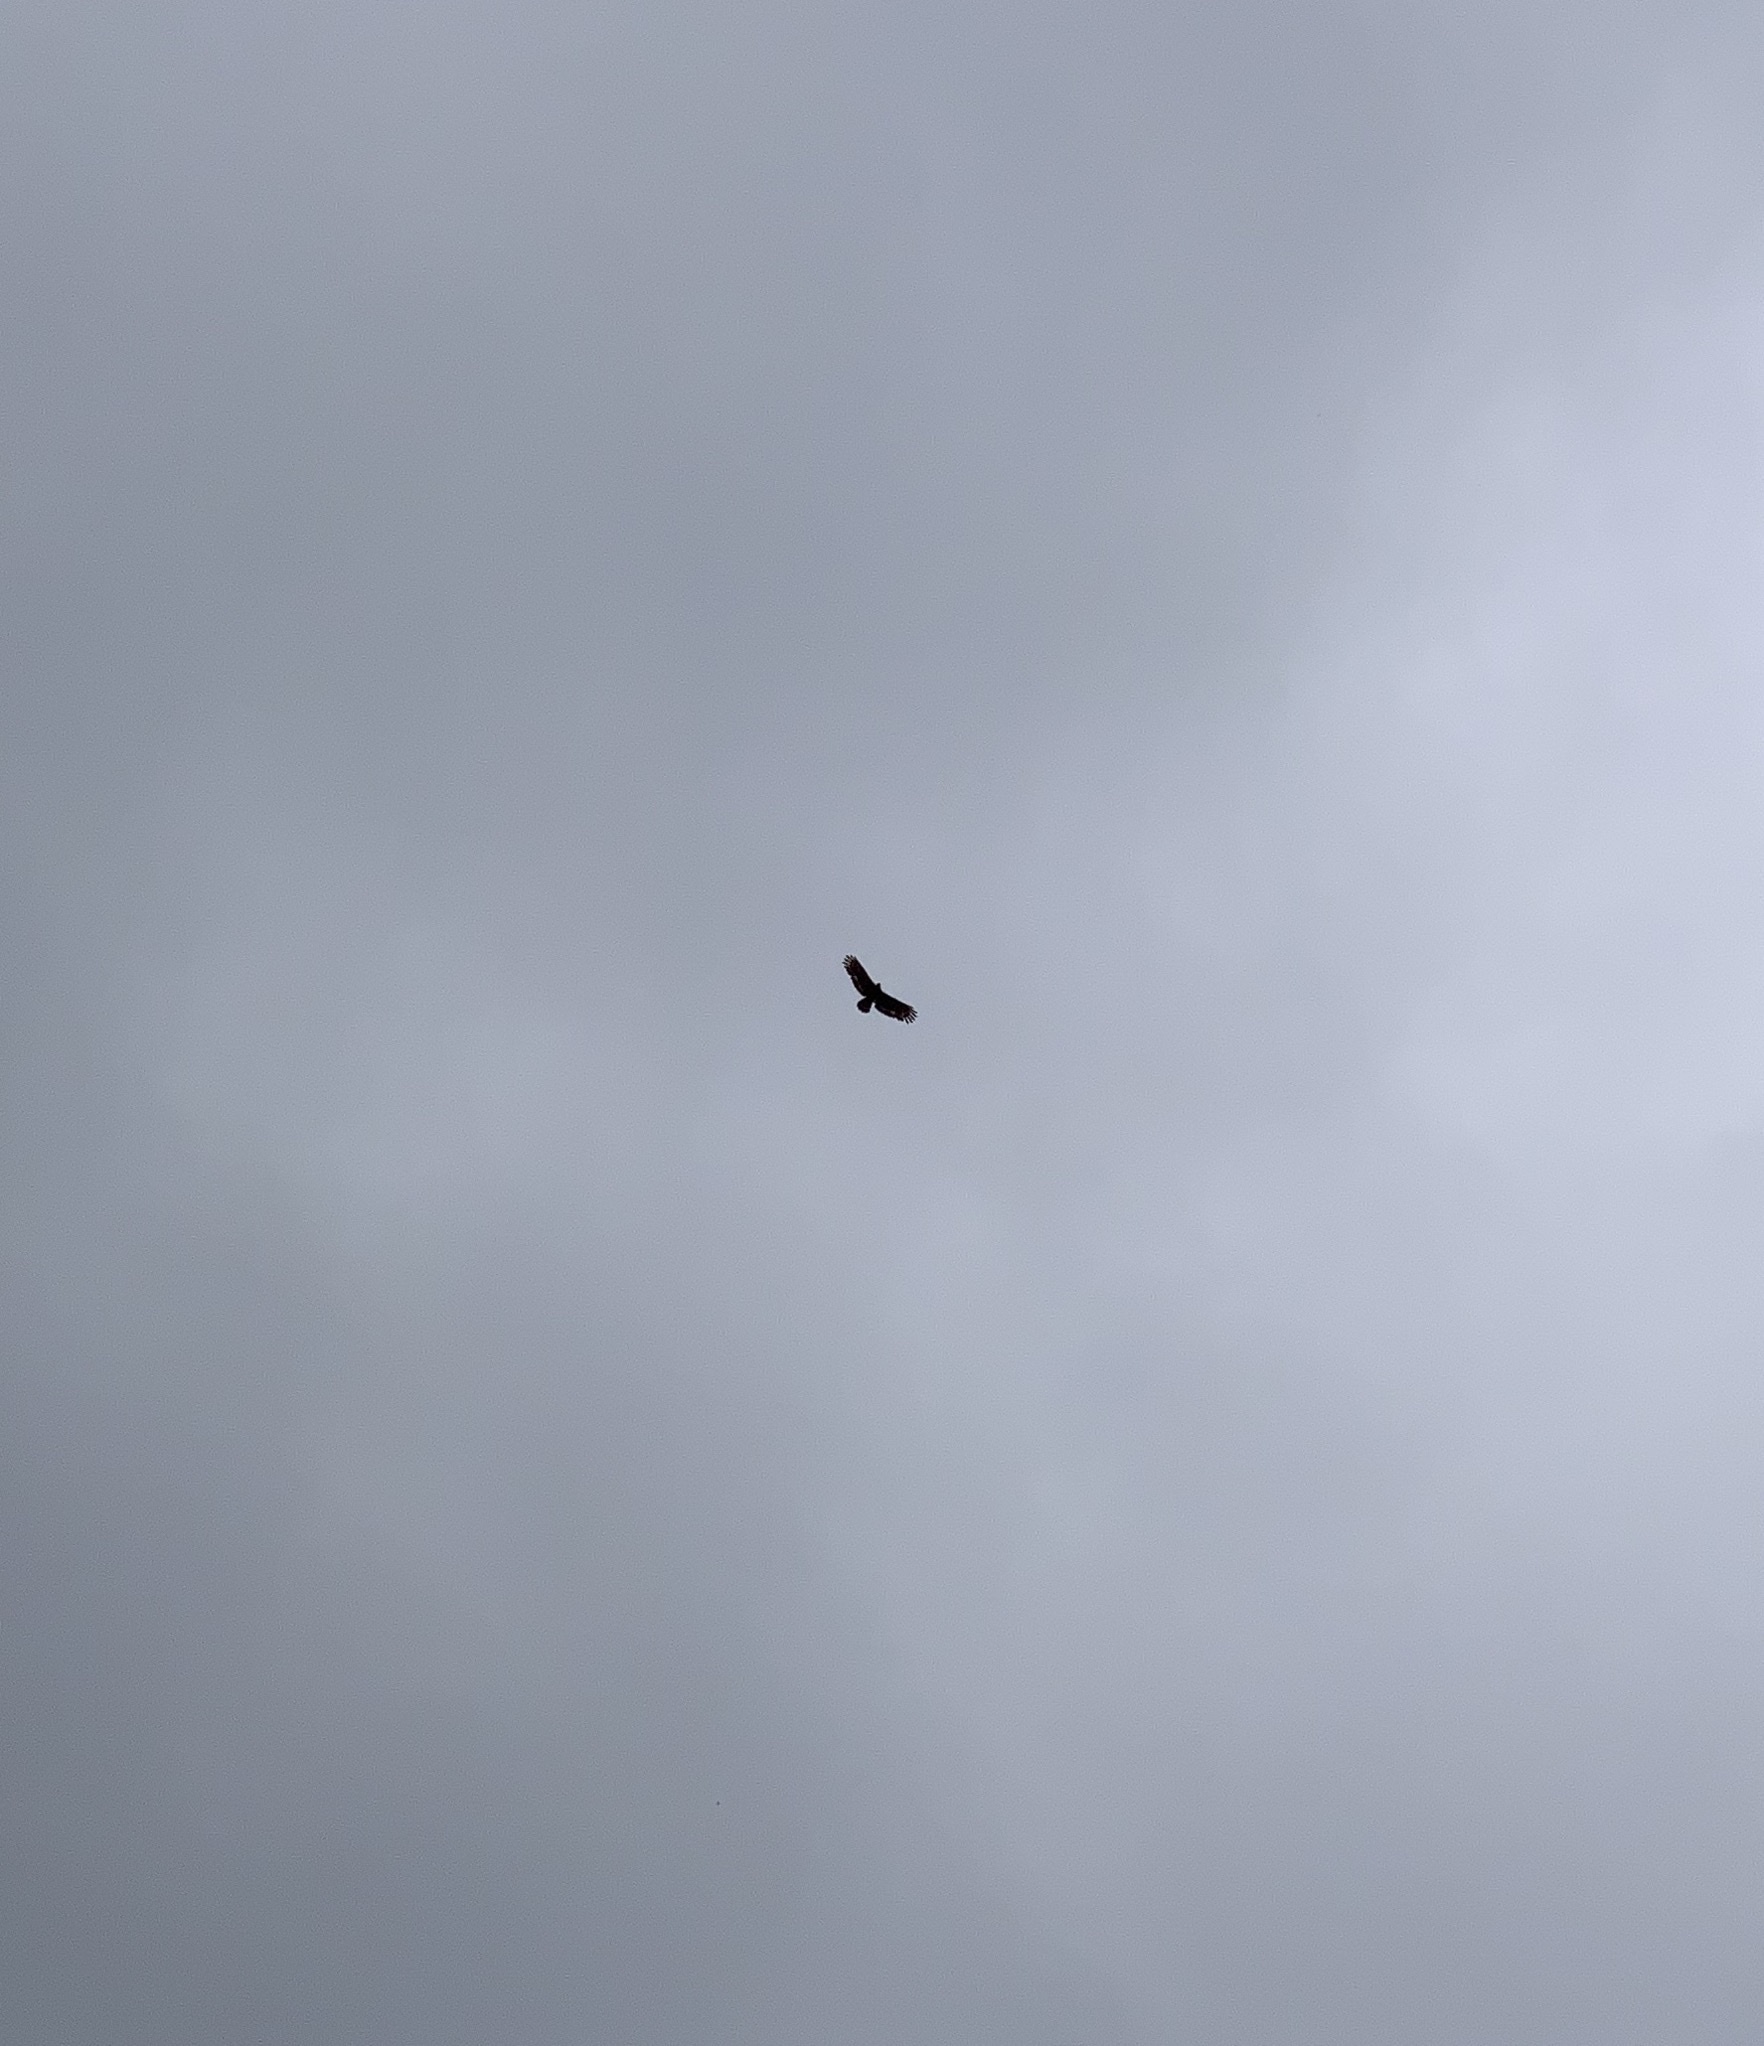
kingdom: Animalia
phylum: Chordata
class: Aves
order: Accipitriformes
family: Accipitridae
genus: Spilornis
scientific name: Spilornis cheela
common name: Crested serpent eagle
